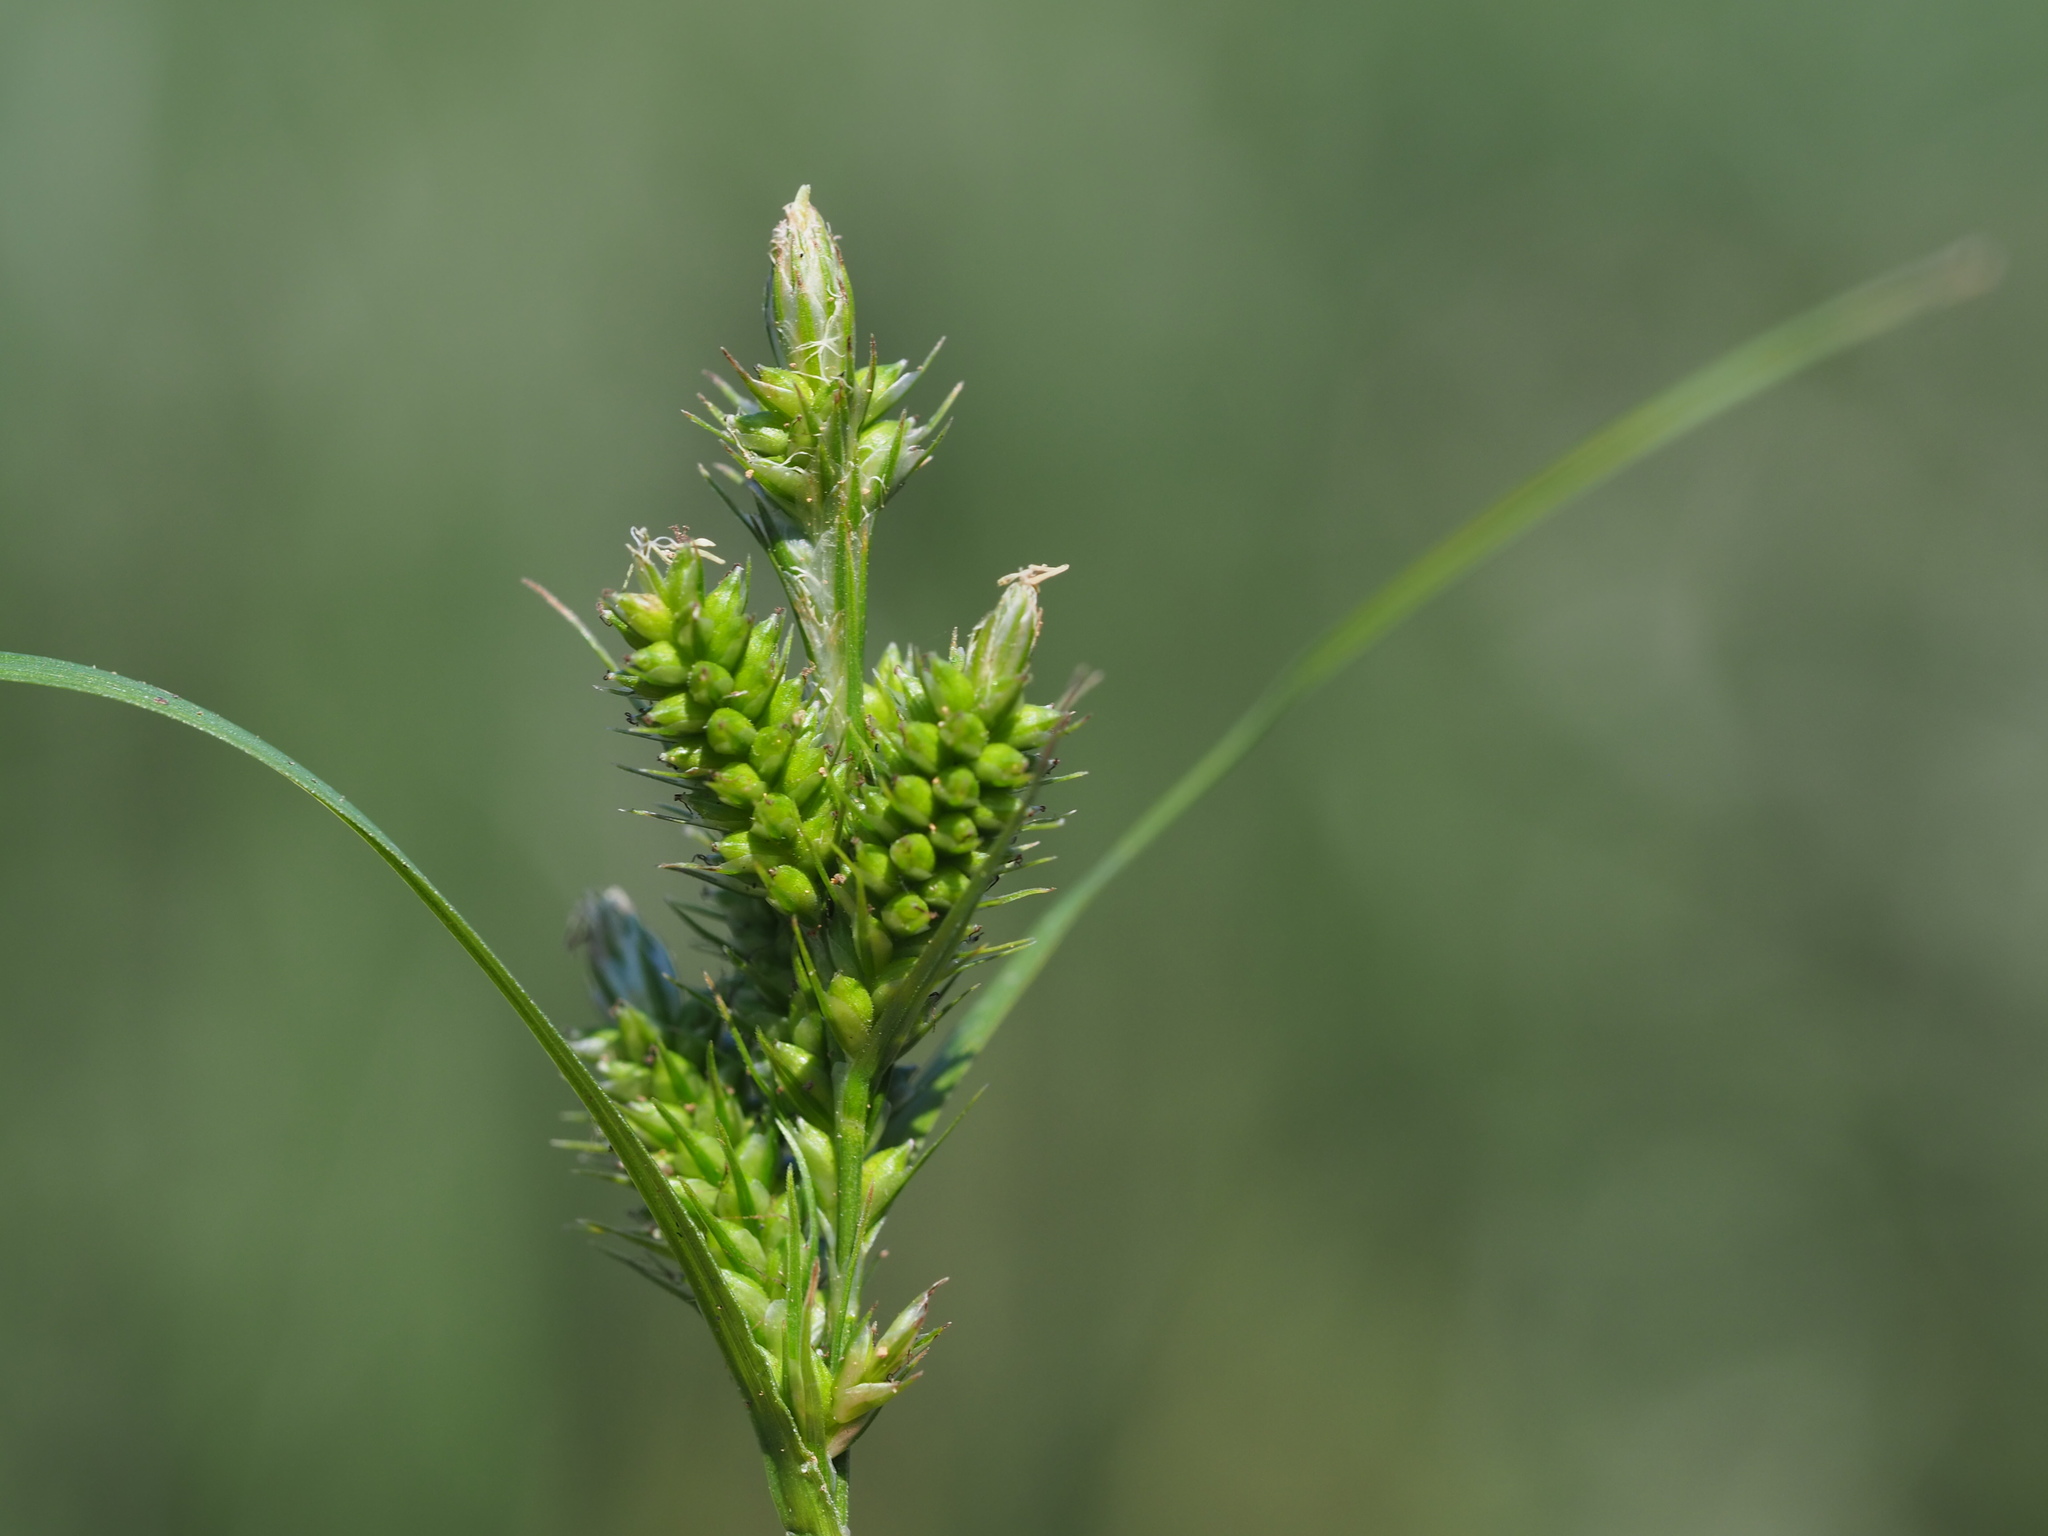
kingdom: Plantae
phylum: Tracheophyta
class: Liliopsida
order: Poales
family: Cyperaceae
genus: Carex
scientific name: Carex fibrillosa
